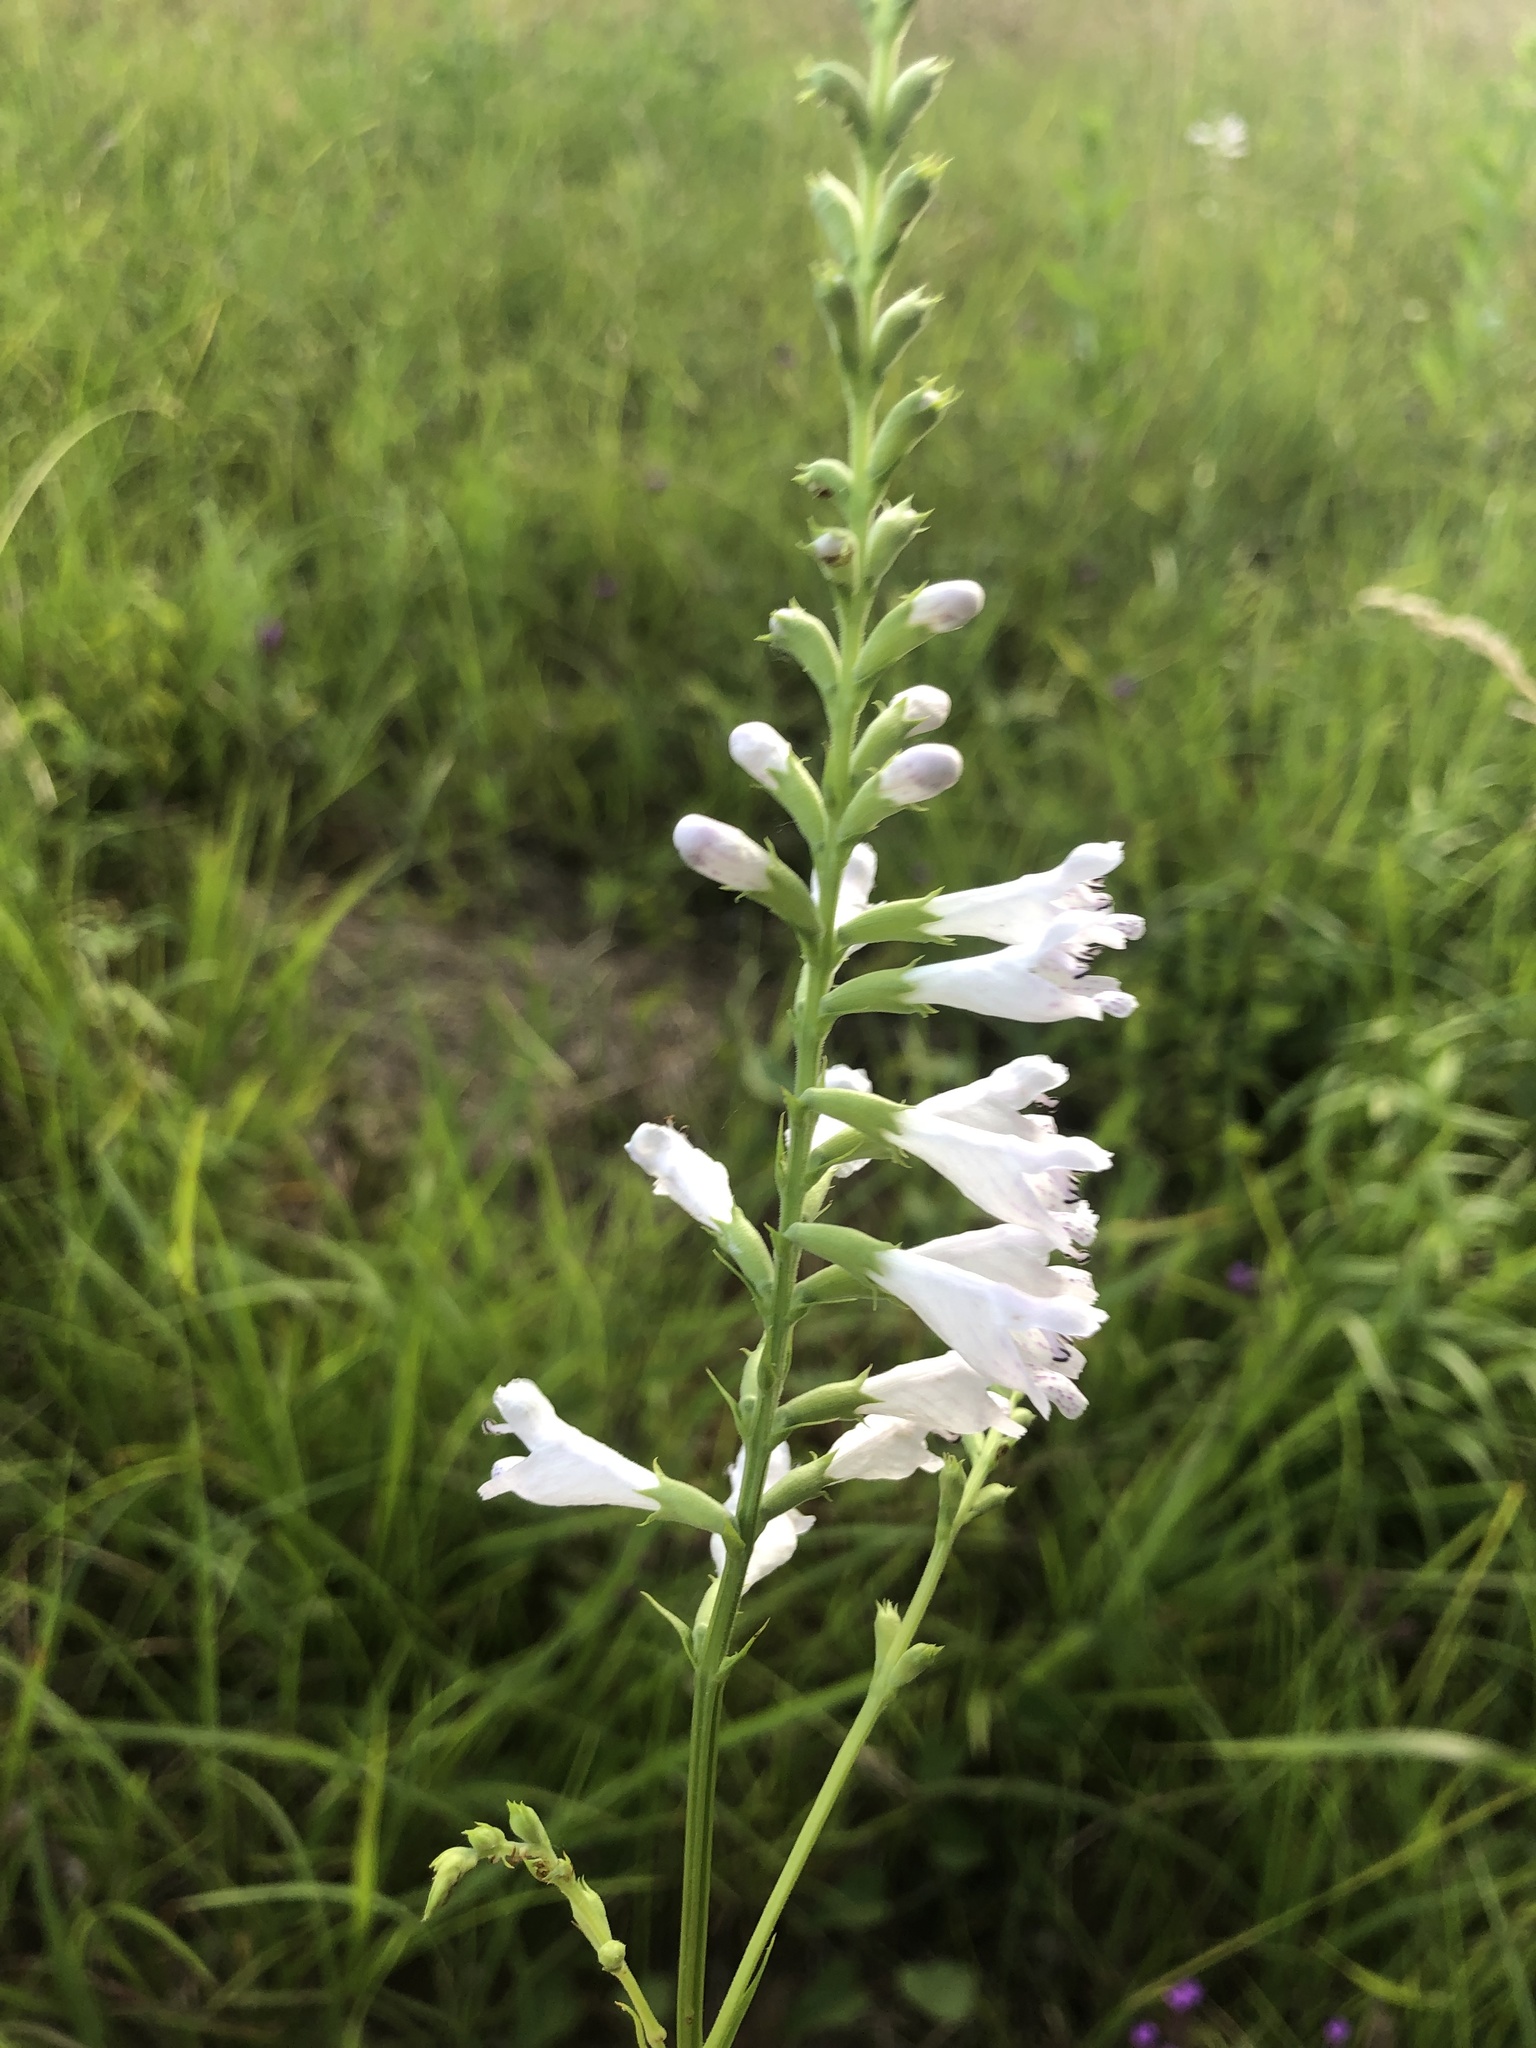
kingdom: Plantae
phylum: Tracheophyta
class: Magnoliopsida
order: Lamiales
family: Lamiaceae
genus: Physostegia
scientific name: Physostegia angustifolia
